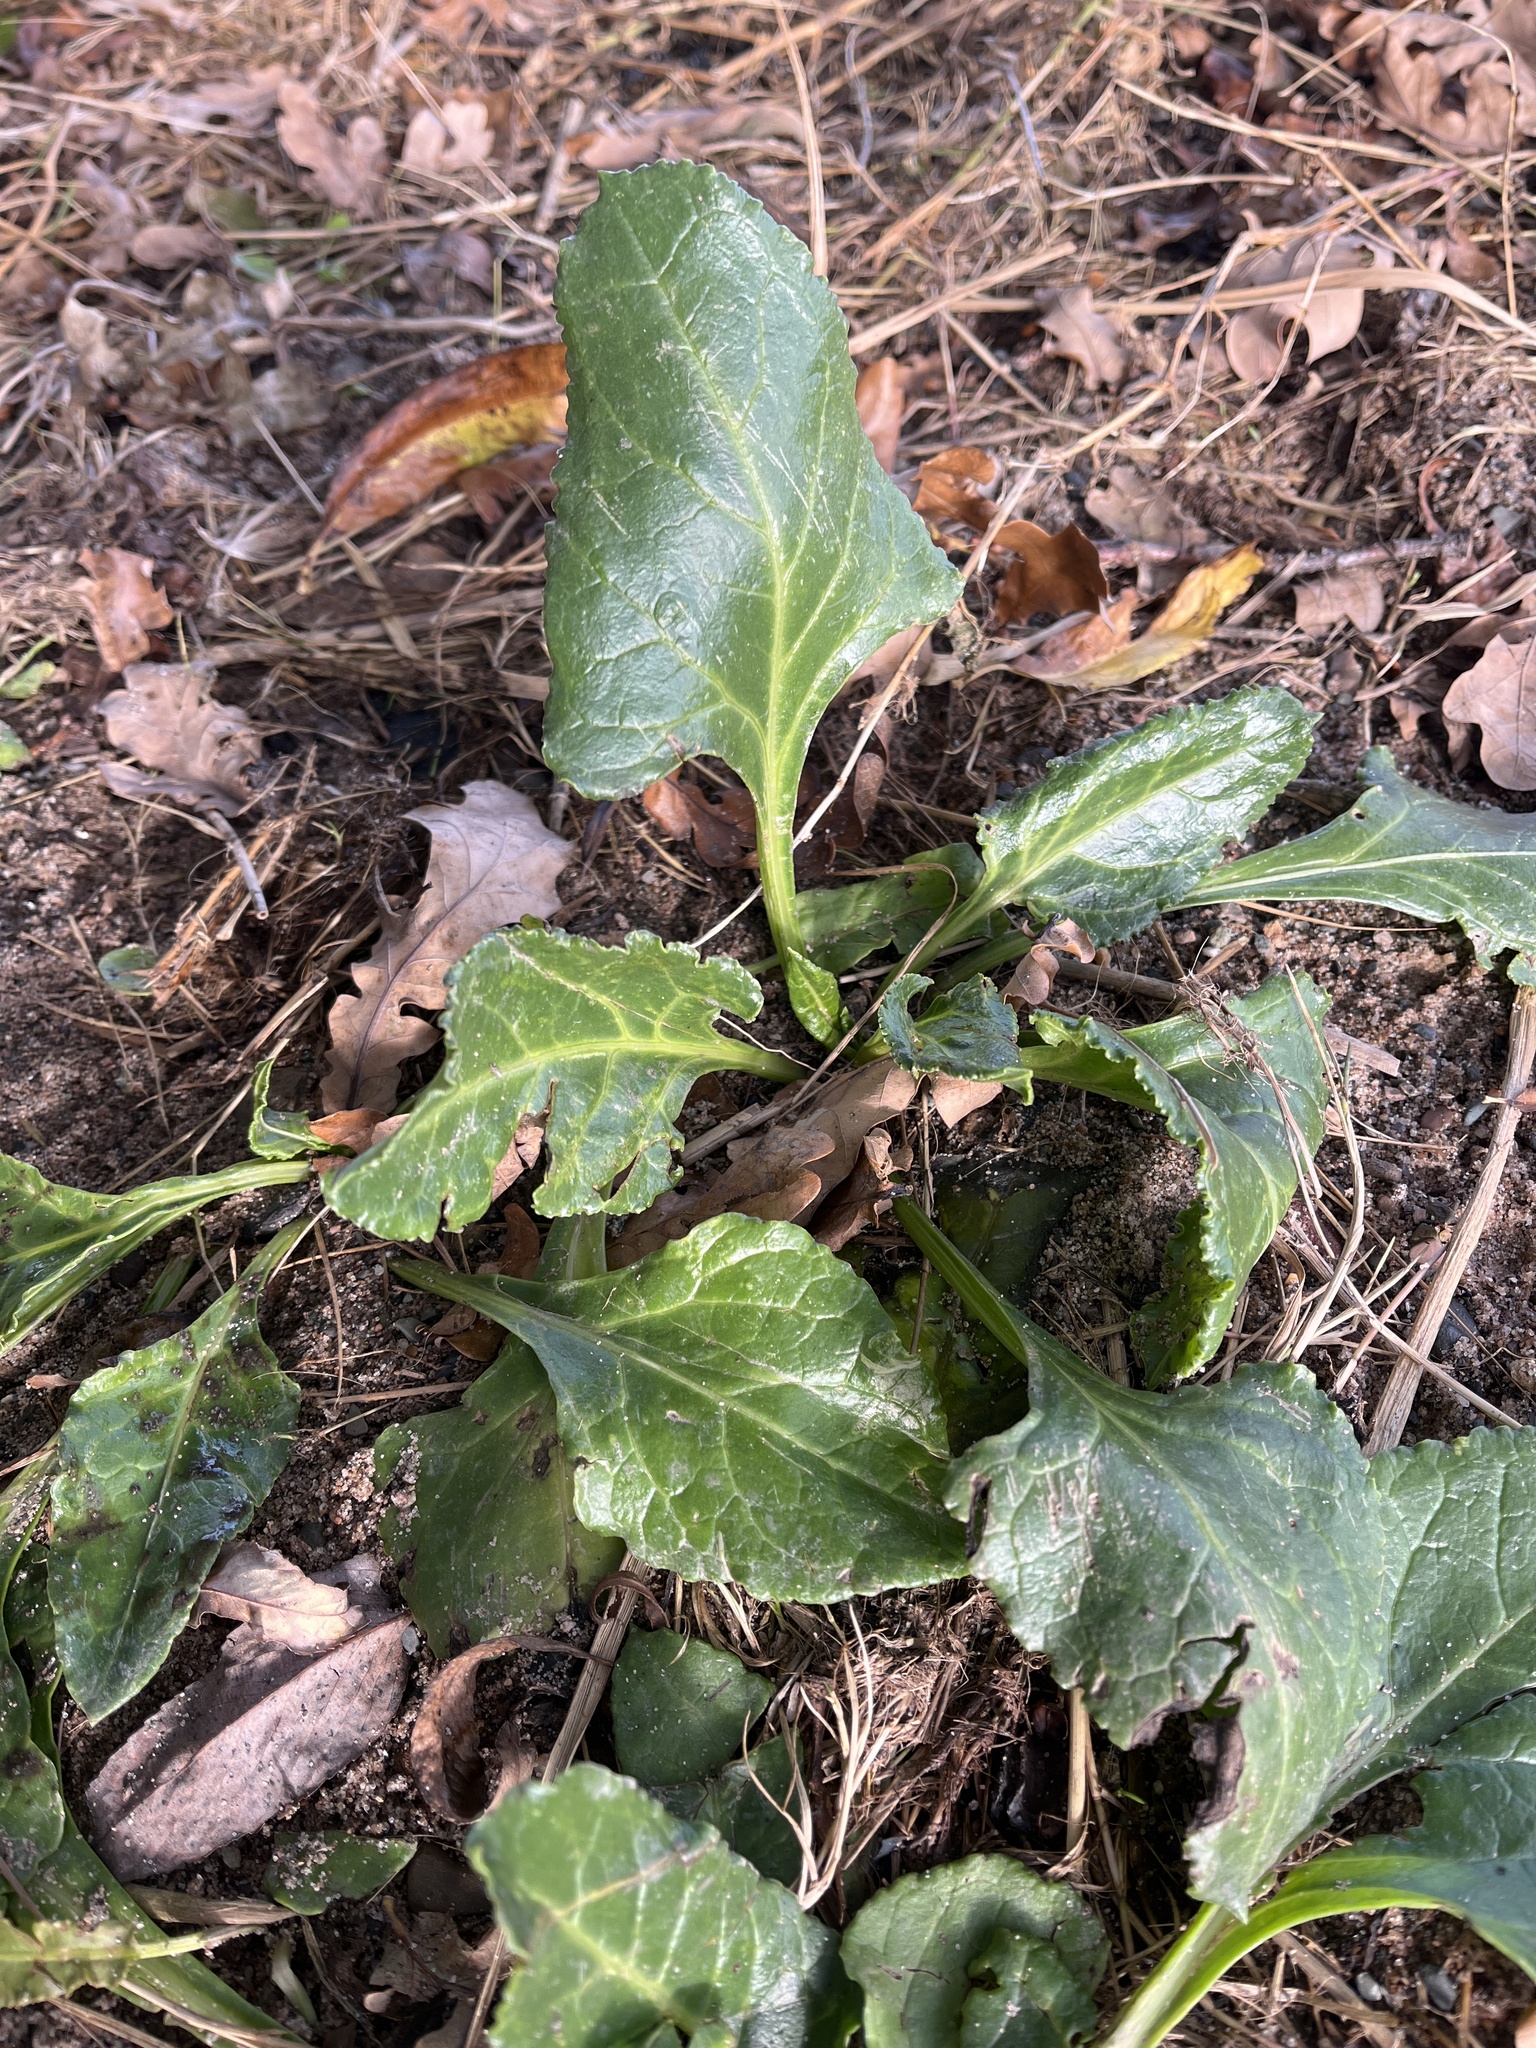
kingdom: Plantae
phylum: Tracheophyta
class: Magnoliopsida
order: Caryophyllales
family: Amaranthaceae
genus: Beta
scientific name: Beta vulgaris
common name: Beet
